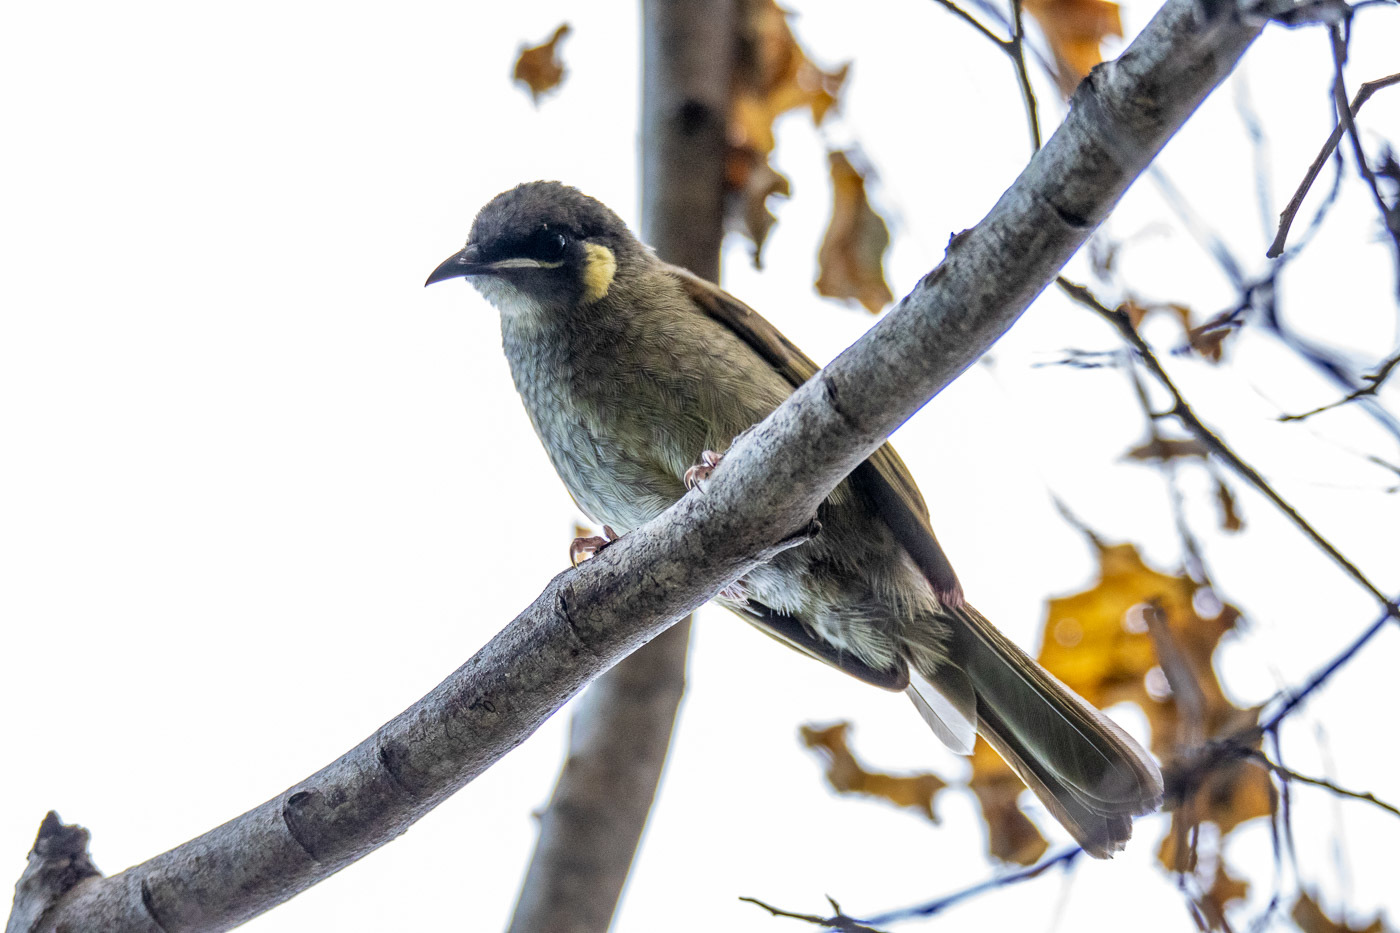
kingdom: Animalia
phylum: Chordata
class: Aves
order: Passeriformes
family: Meliphagidae
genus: Meliphaga
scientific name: Meliphaga lewinii
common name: Lewin's honeyeater
